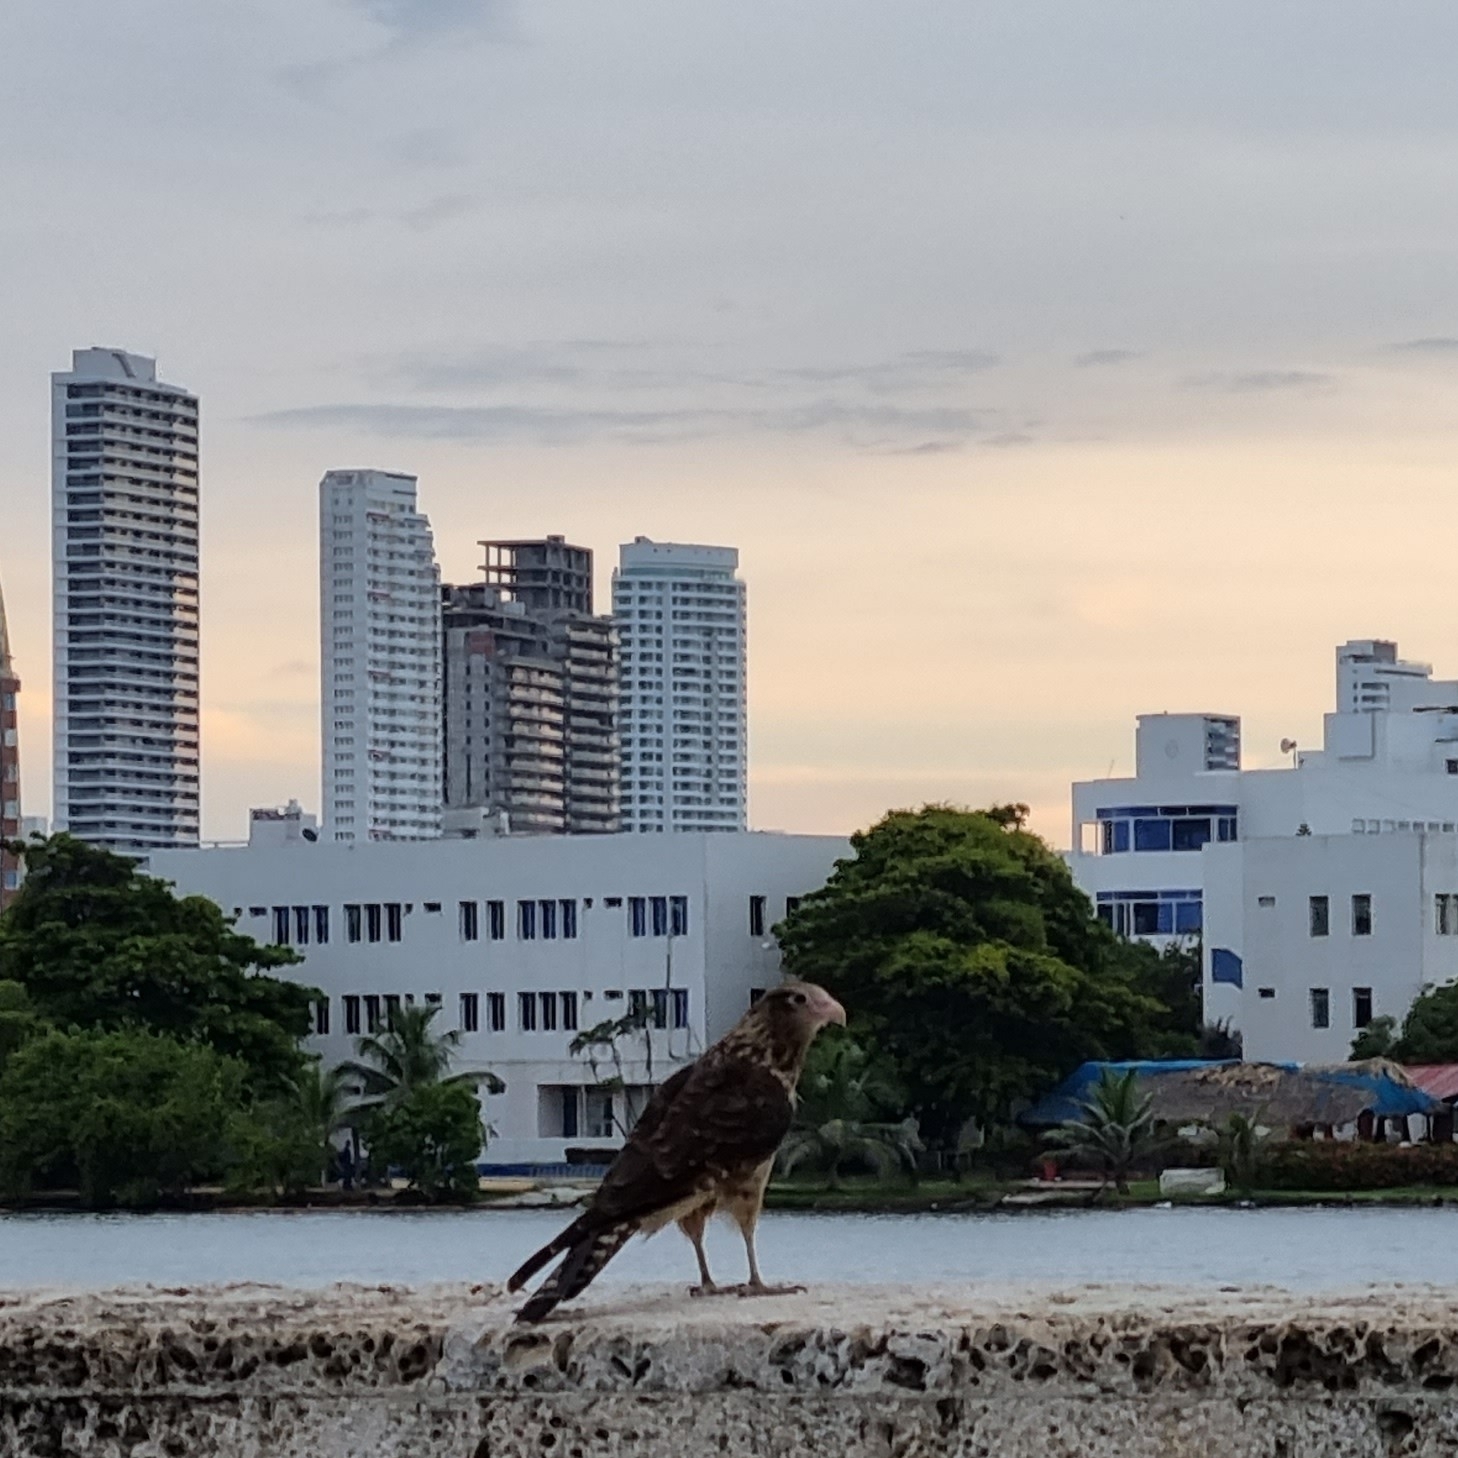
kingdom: Animalia
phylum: Chordata
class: Aves
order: Falconiformes
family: Falconidae
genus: Daptrius
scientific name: Daptrius
